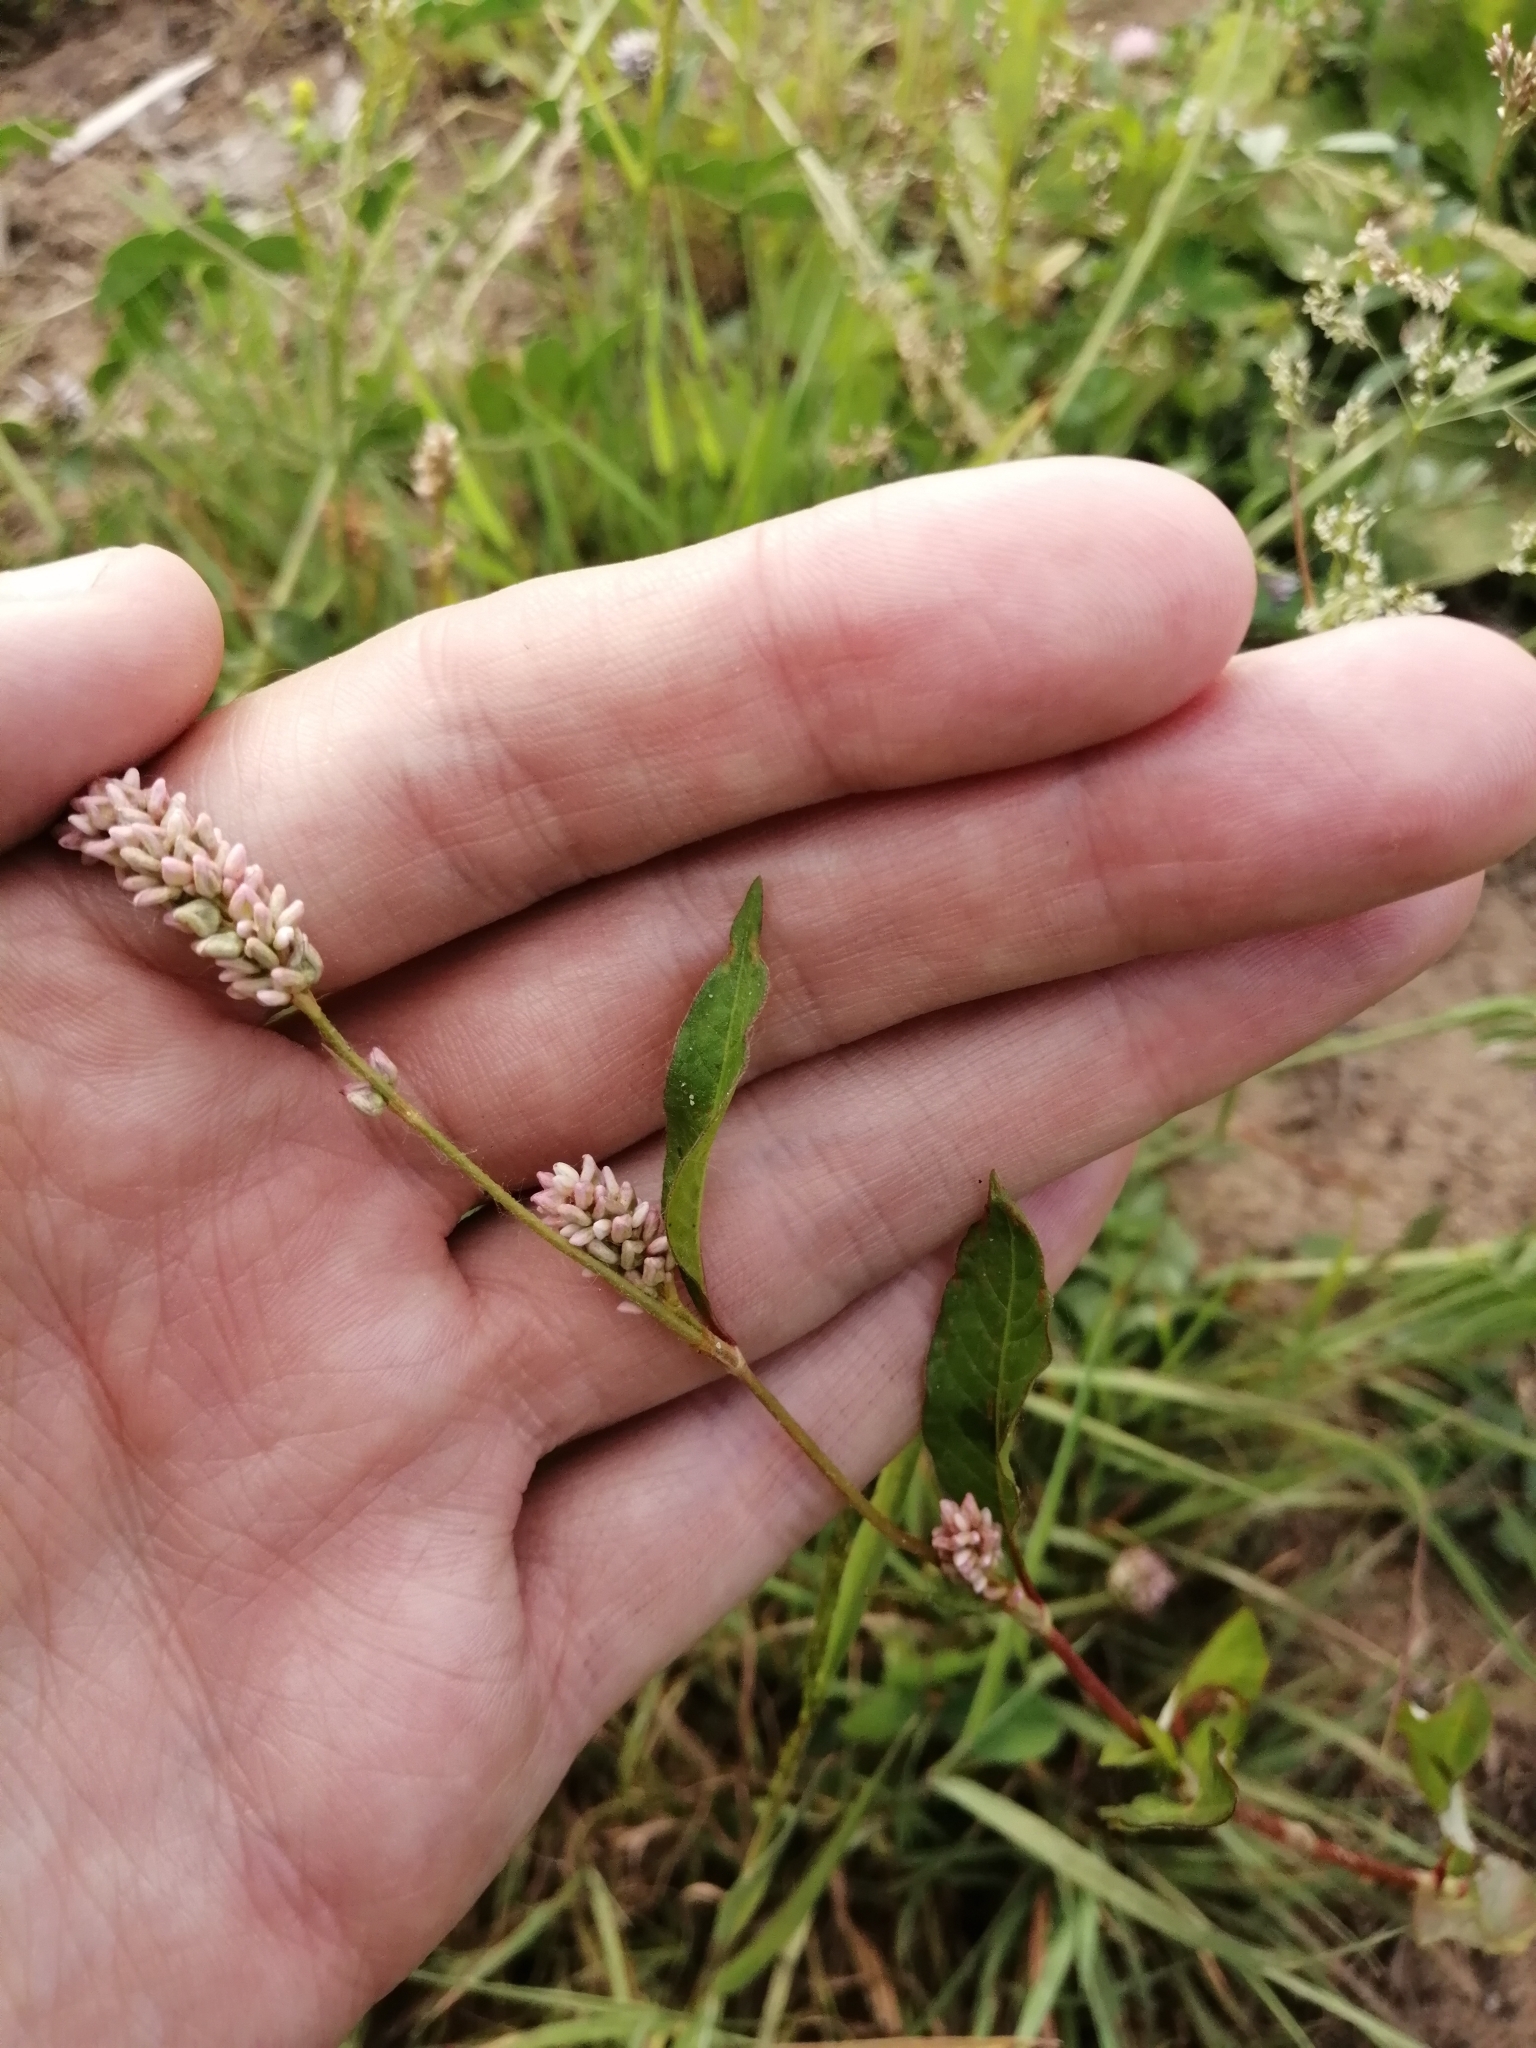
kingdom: Plantae
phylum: Tracheophyta
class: Magnoliopsida
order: Caryophyllales
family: Polygonaceae
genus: Persicaria
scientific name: Persicaria maculosa
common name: Redshank
